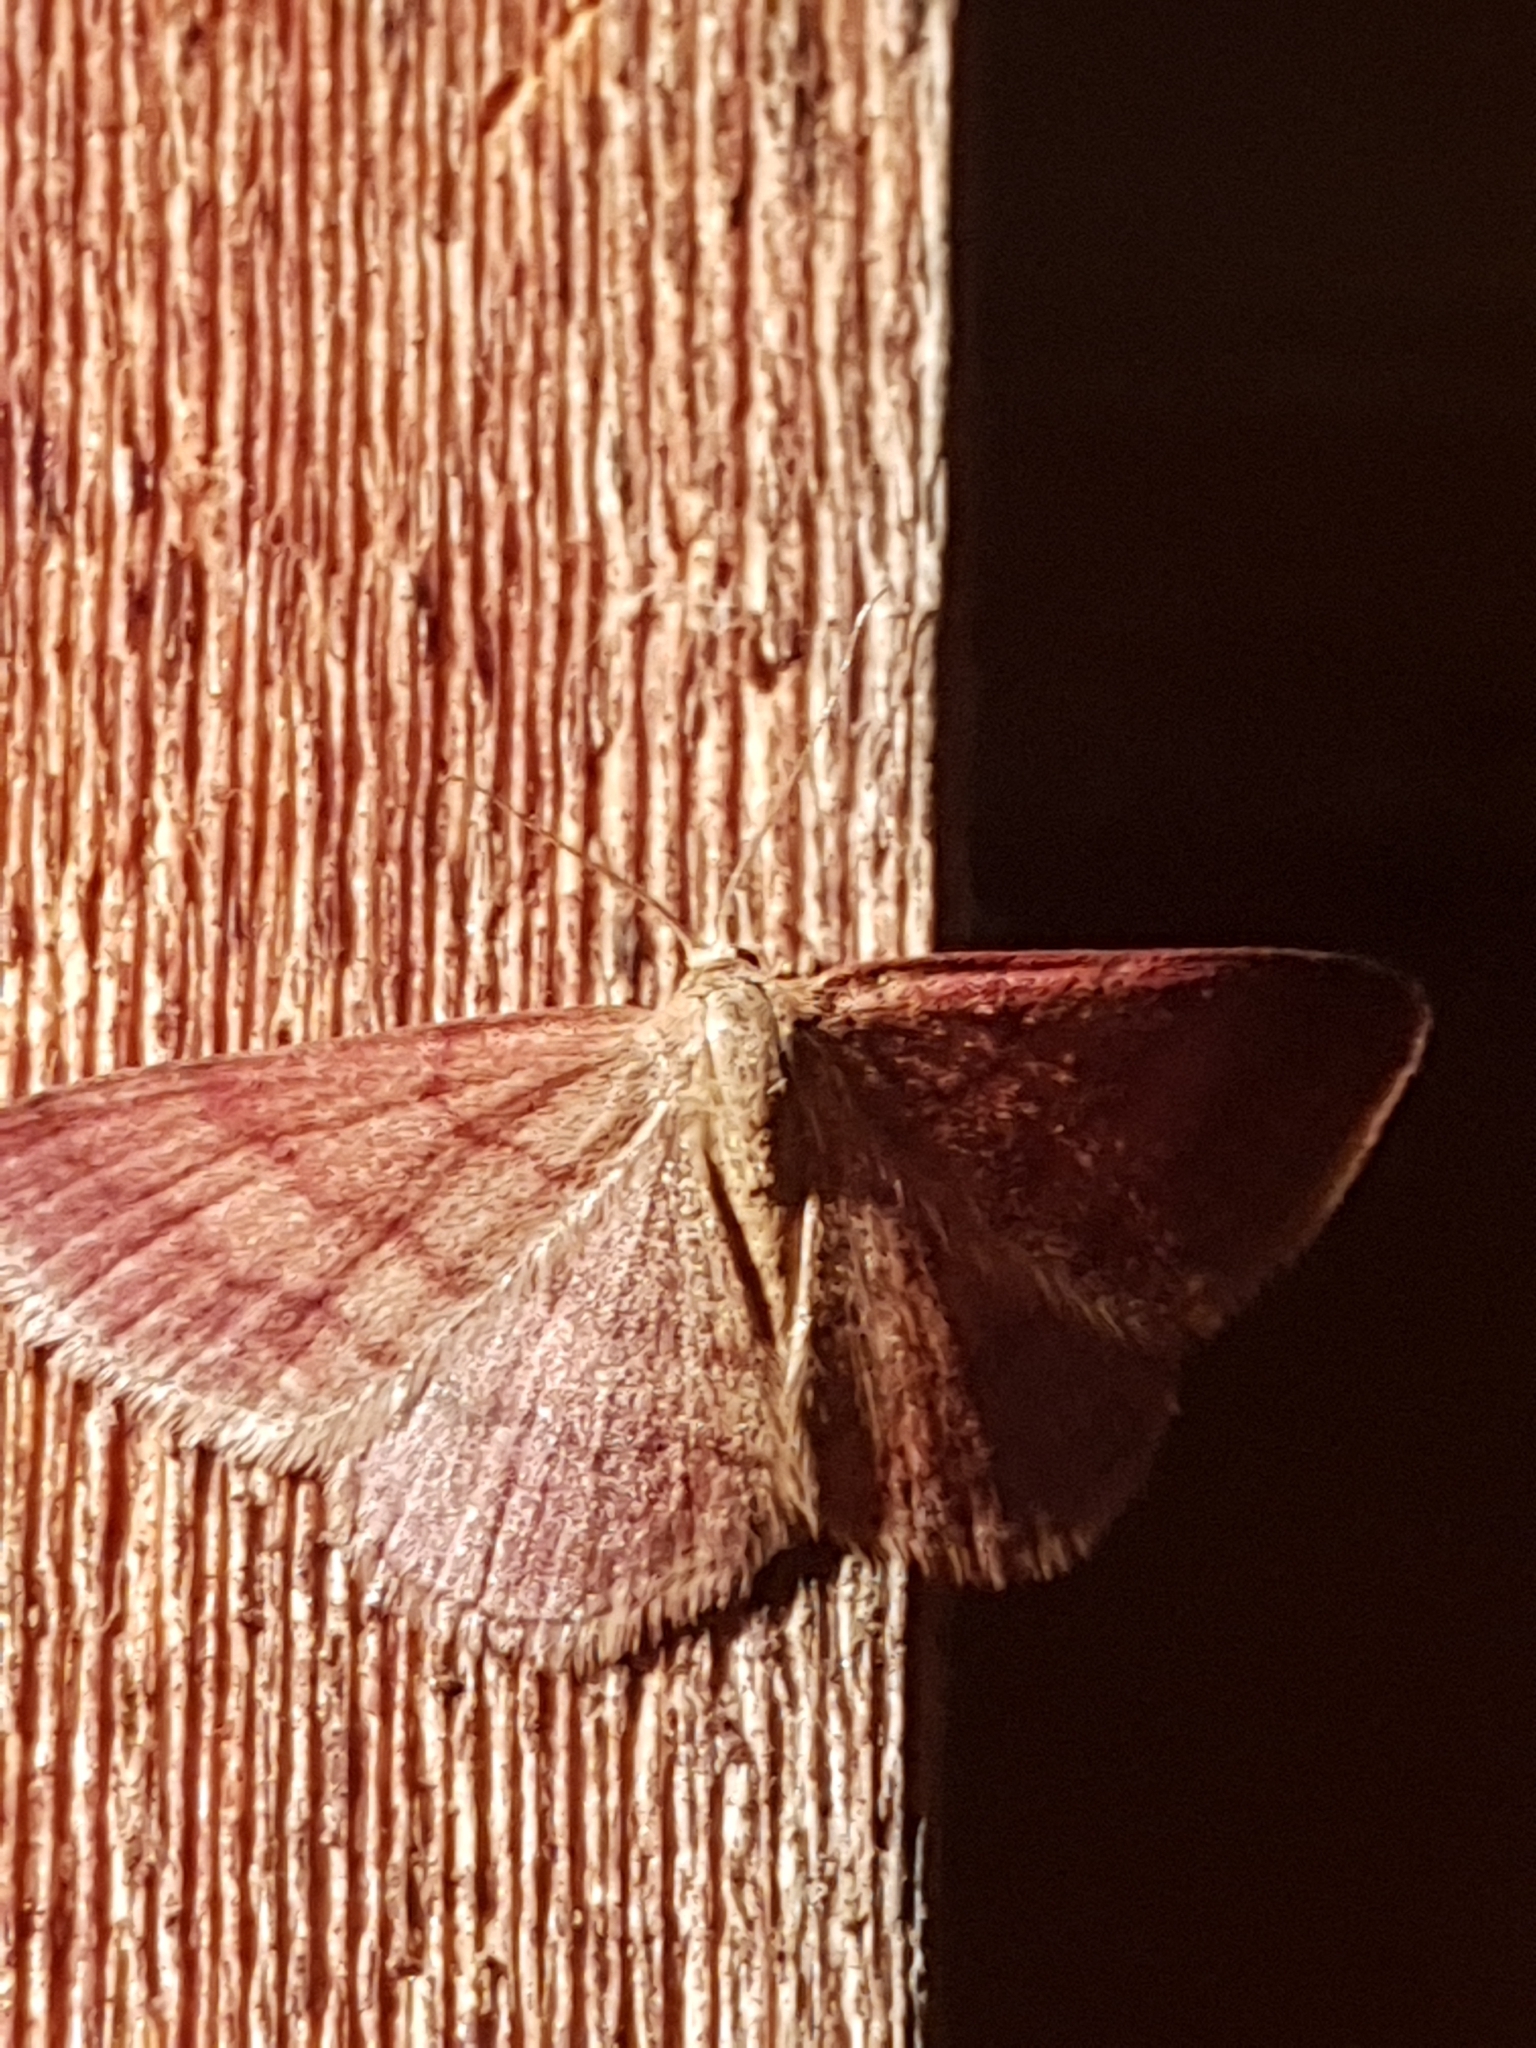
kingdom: Animalia
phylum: Arthropoda
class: Insecta
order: Lepidoptera
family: Geometridae
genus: Scopula
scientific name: Scopula rubiginata
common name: Tawny wave
